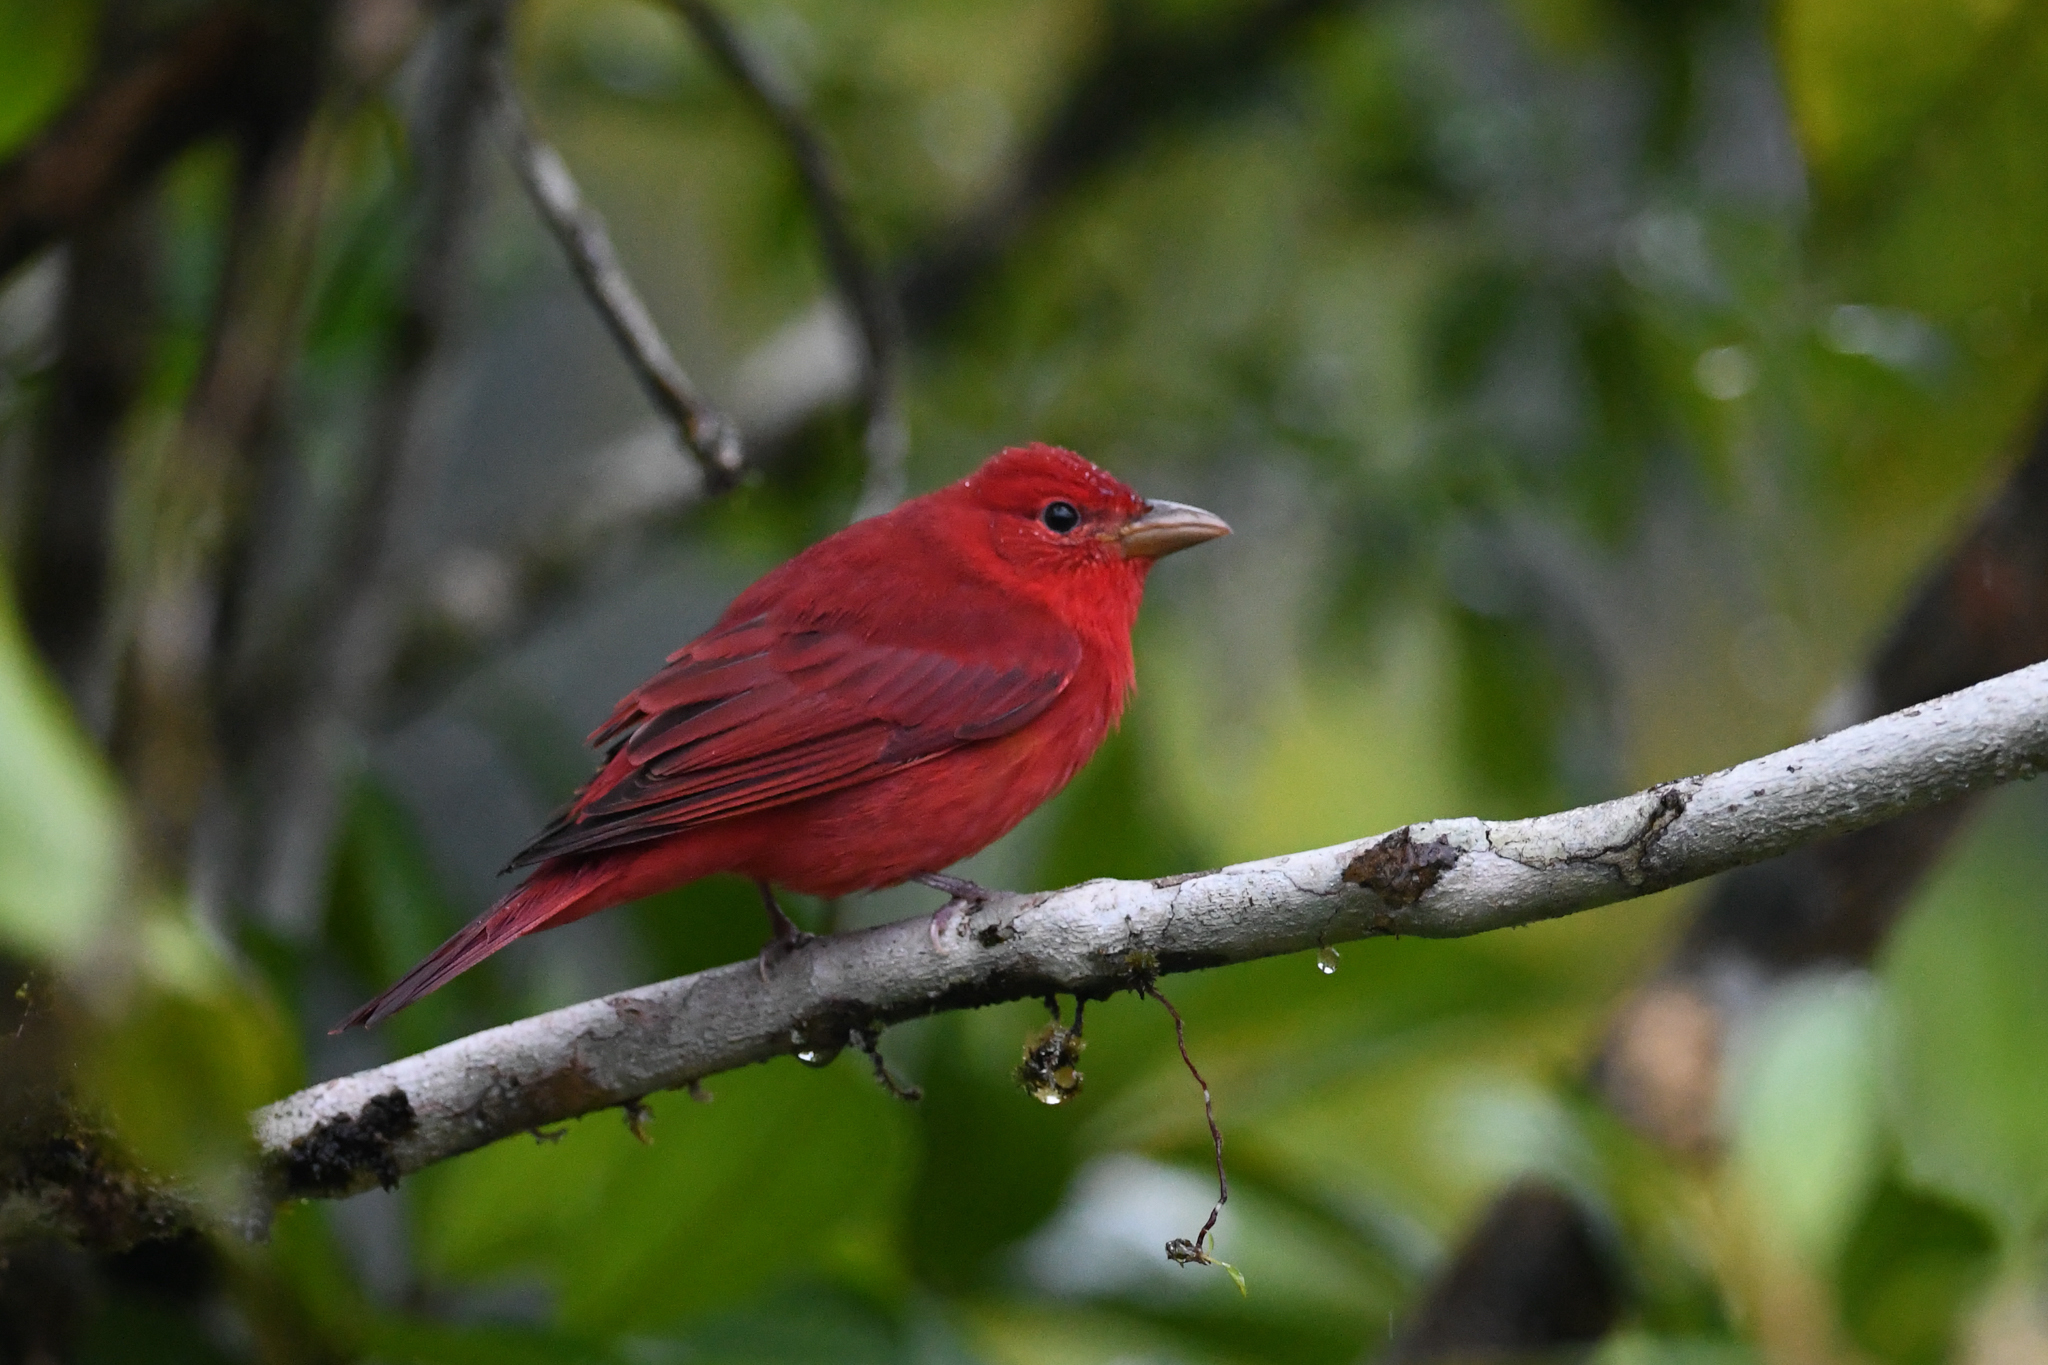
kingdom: Animalia
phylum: Chordata
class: Aves
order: Passeriformes
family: Cardinalidae
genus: Piranga
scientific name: Piranga rubra
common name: Summer tanager
